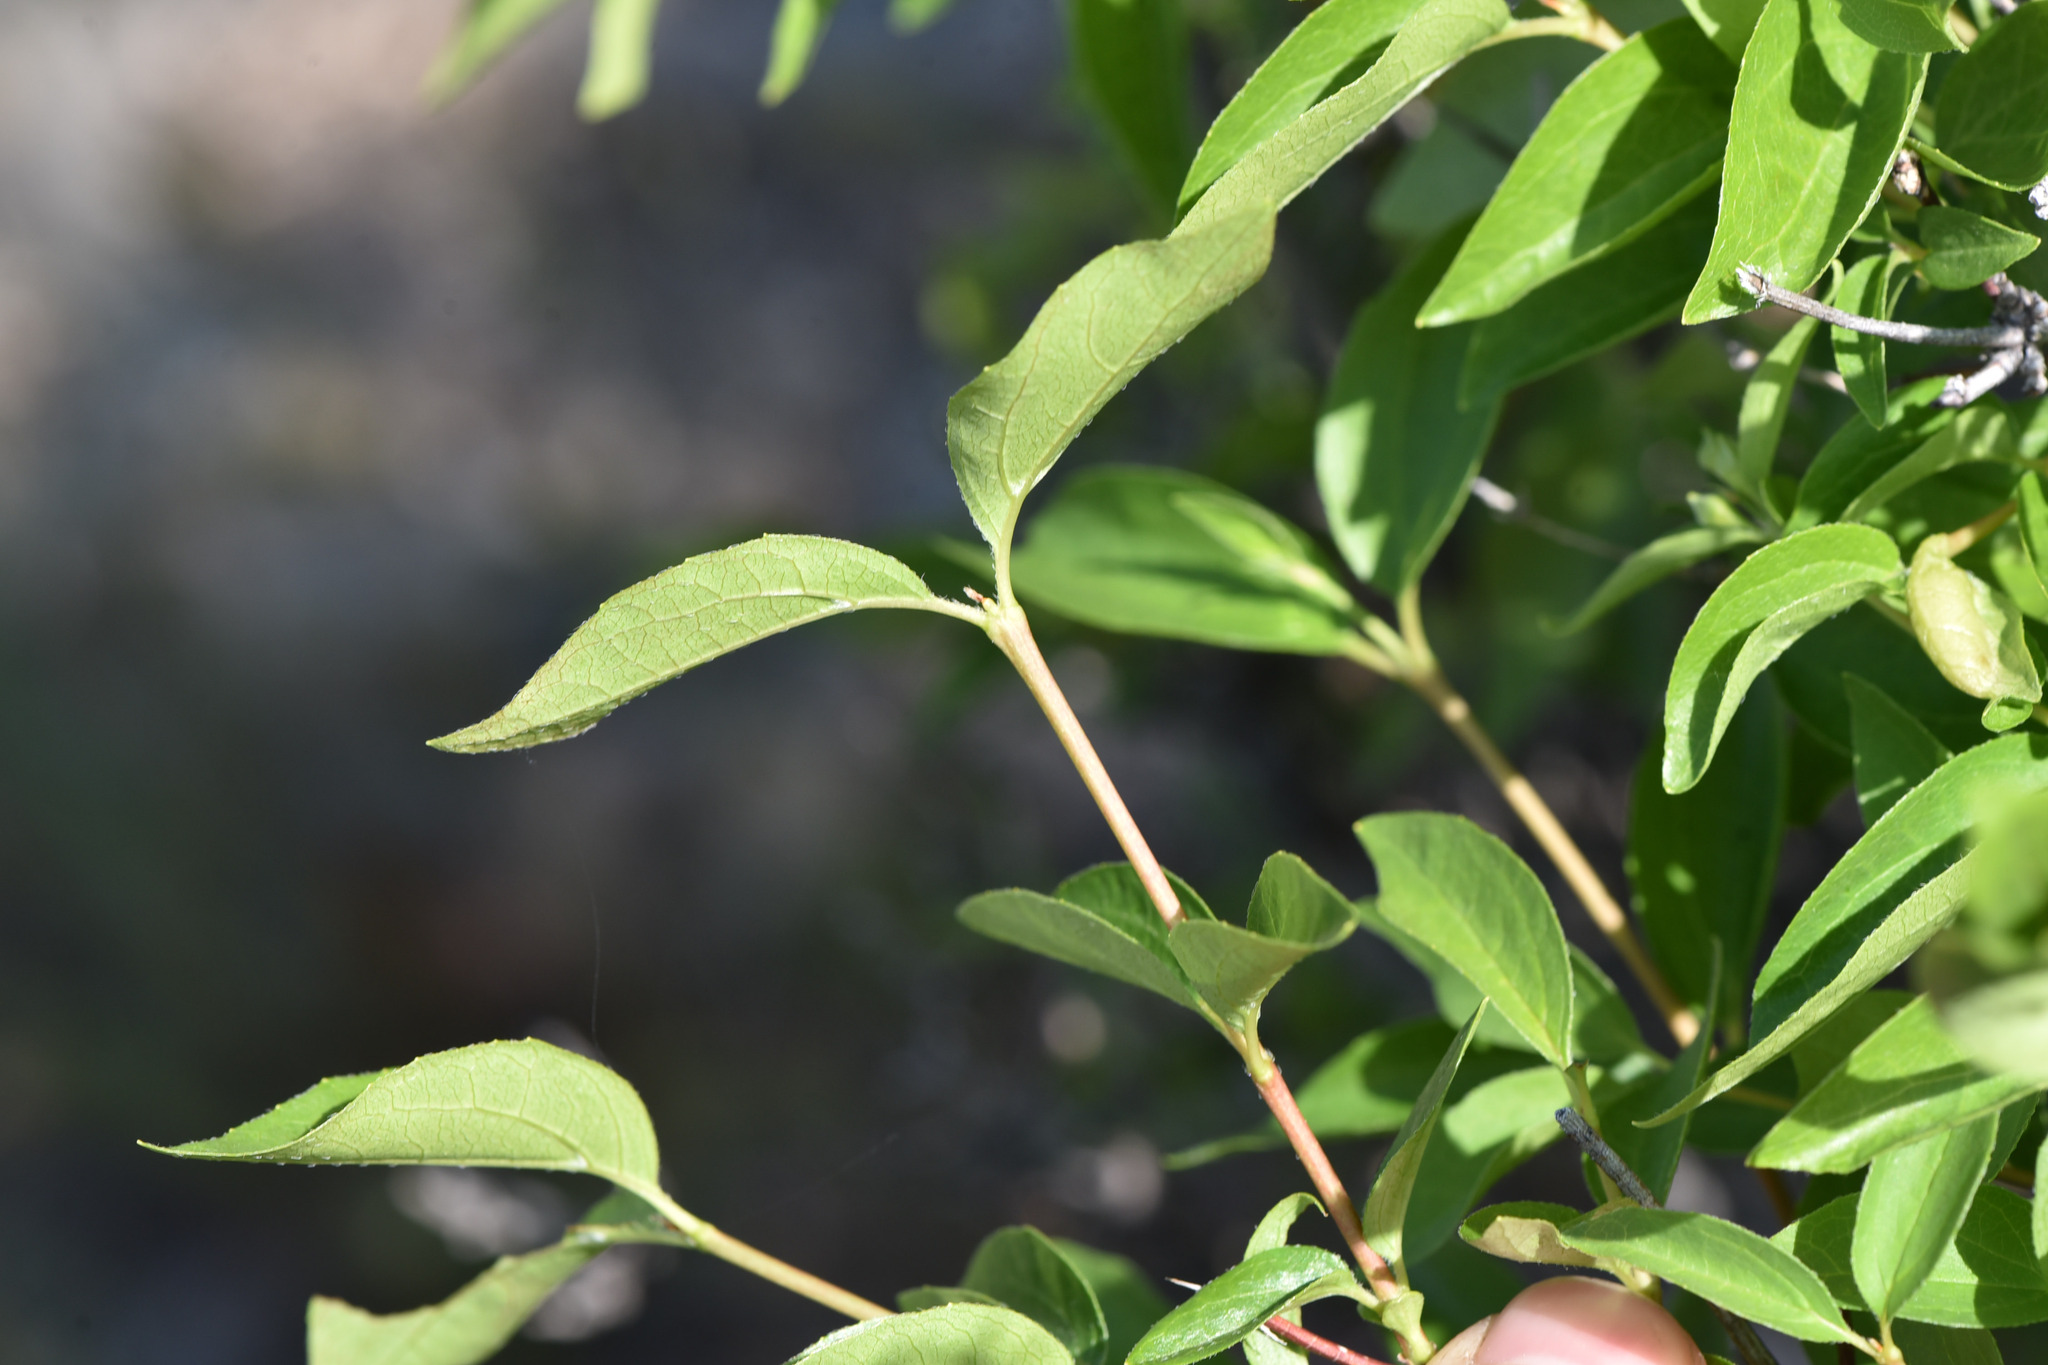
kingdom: Plantae
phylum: Tracheophyta
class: Magnoliopsida
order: Cornales
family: Hydrangeaceae
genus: Philadelphus
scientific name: Philadelphus lewisii
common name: Lewis's mock orange
